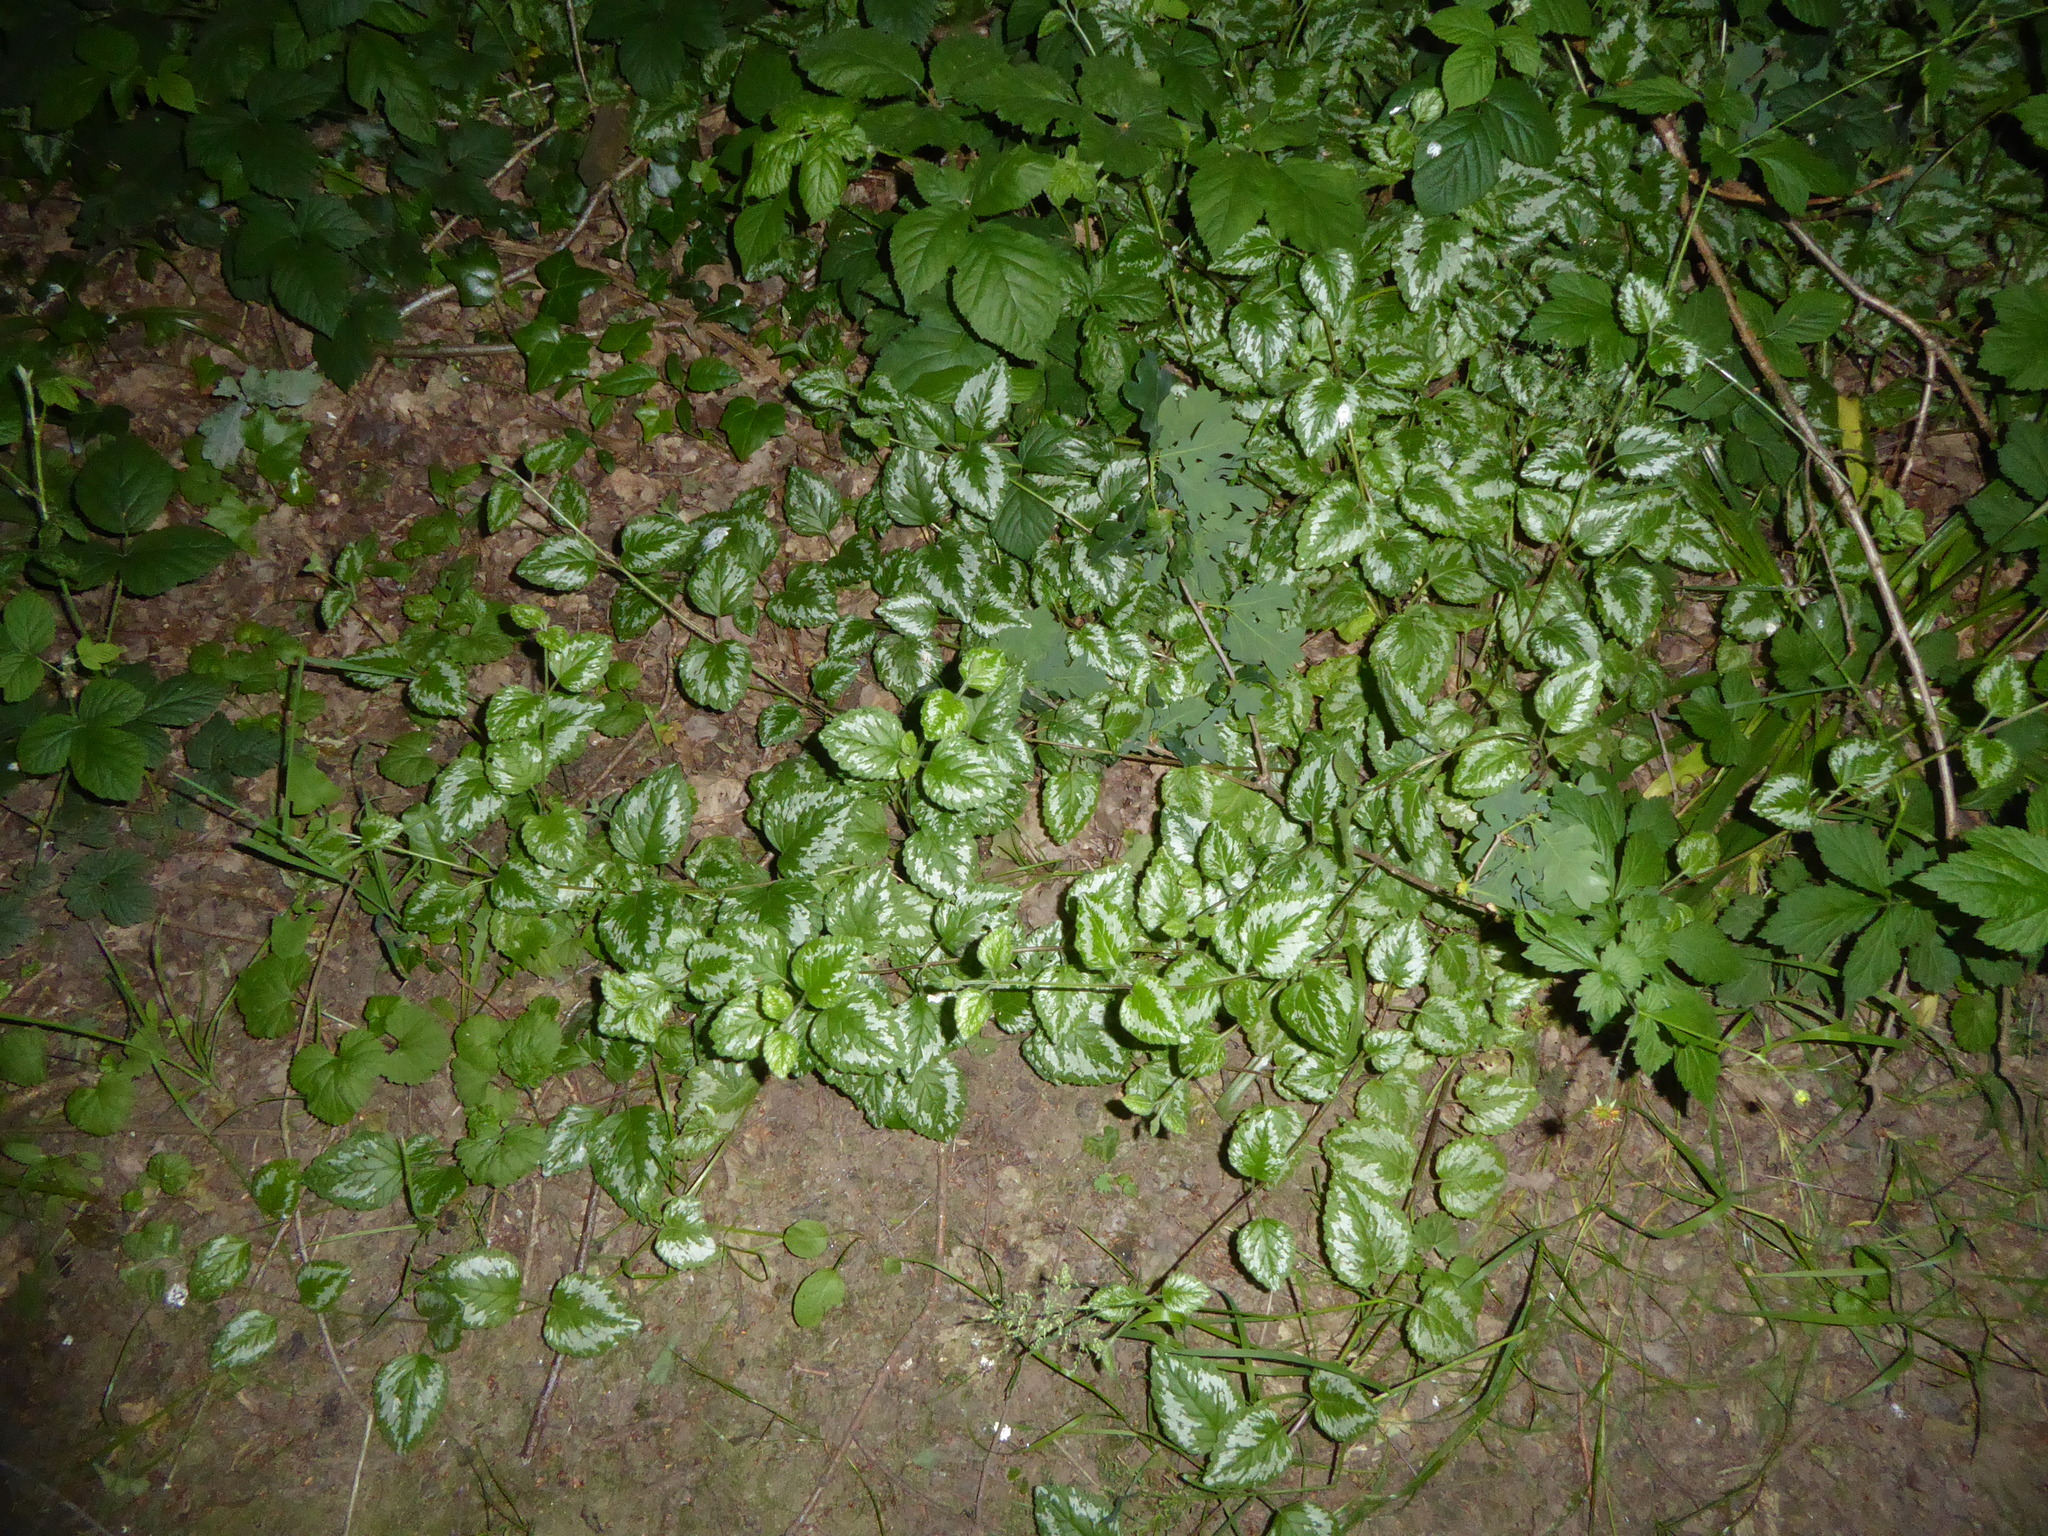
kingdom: Plantae
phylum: Tracheophyta
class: Magnoliopsida
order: Lamiales
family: Lamiaceae
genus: Lamium
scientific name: Lamium galeobdolon
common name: Yellow archangel
